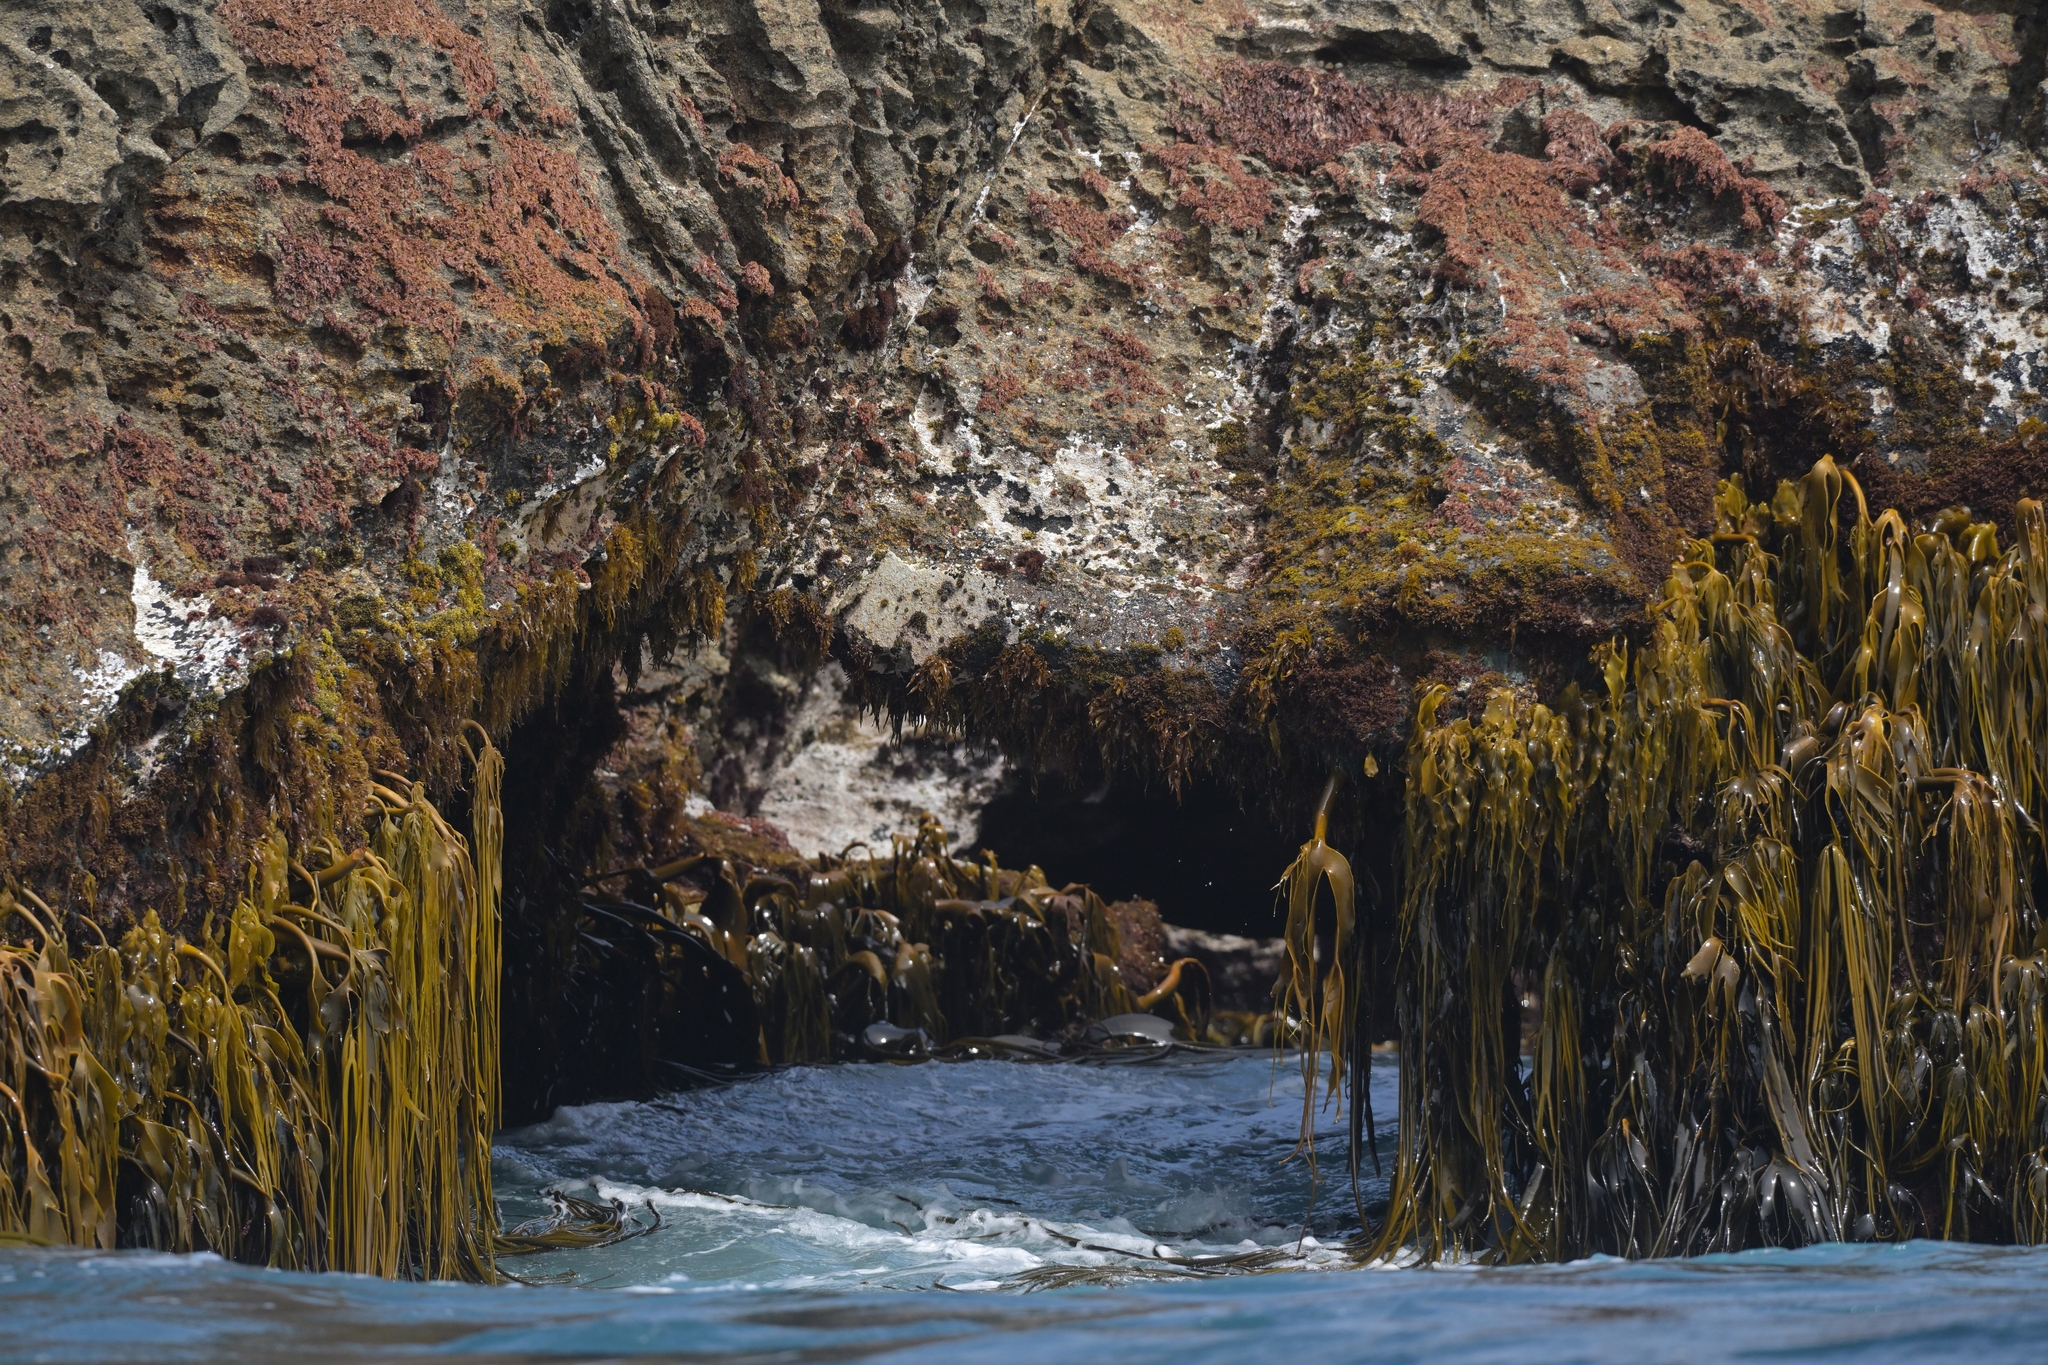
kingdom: Chromista
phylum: Ochrophyta
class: Phaeophyceae
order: Fucales
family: Durvillaeaceae
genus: Durvillaea
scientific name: Durvillaea antarctica
